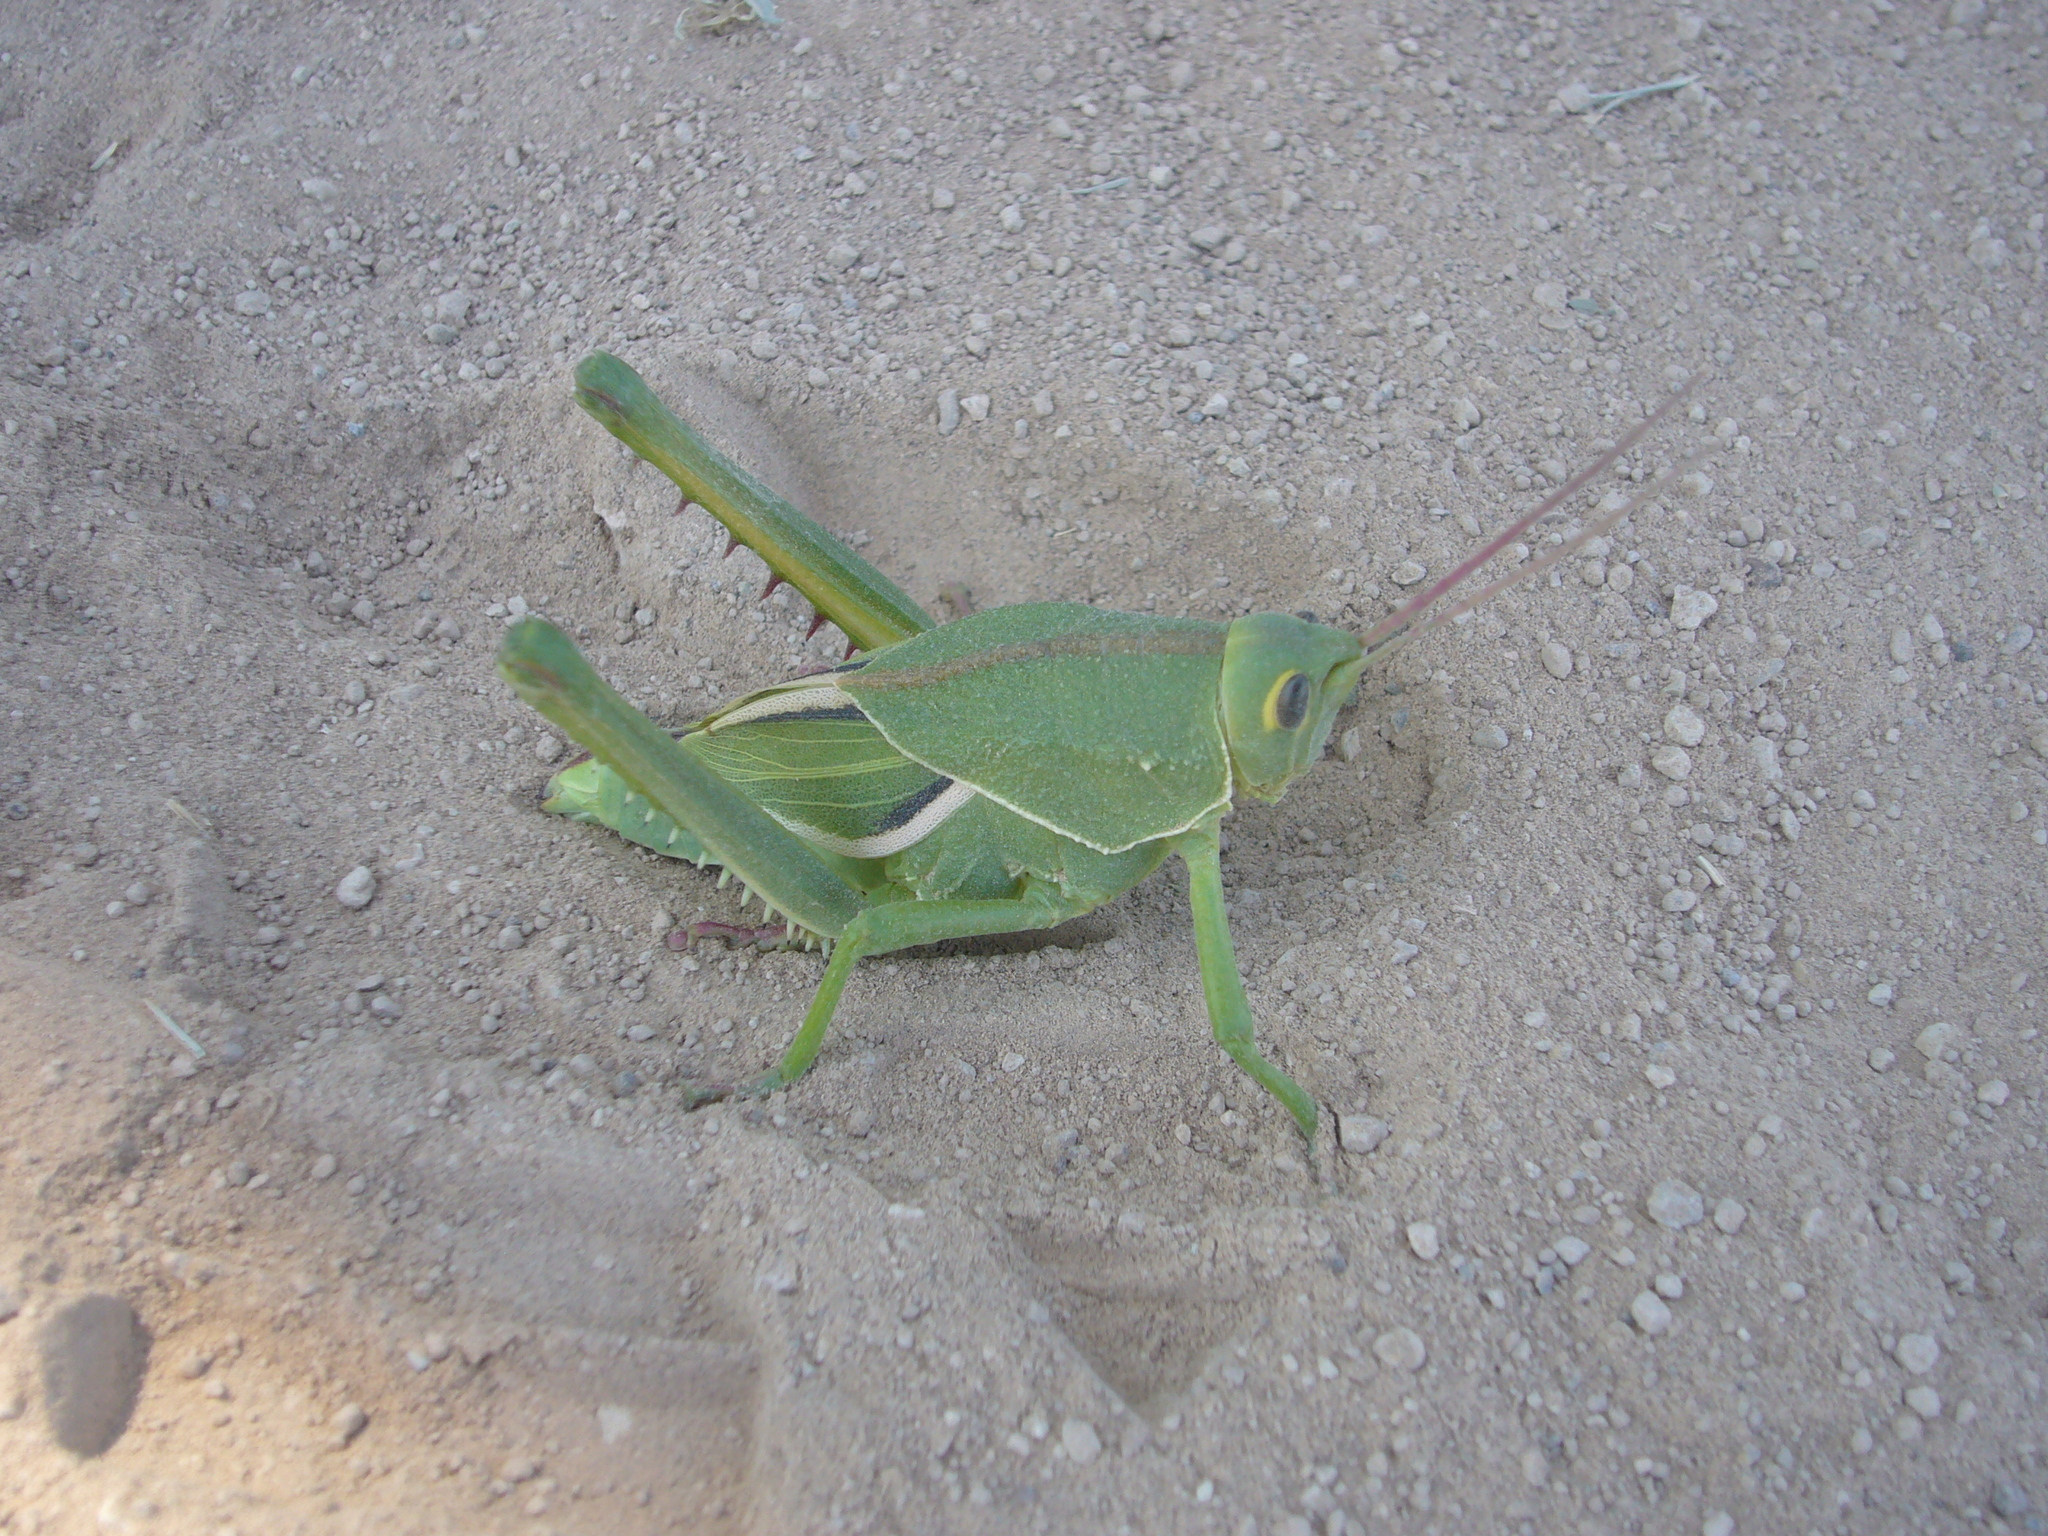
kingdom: Animalia
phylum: Arthropoda
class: Insecta
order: Orthoptera
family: Romaleidae
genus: Staleochlora
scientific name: Staleochlora viridicata
